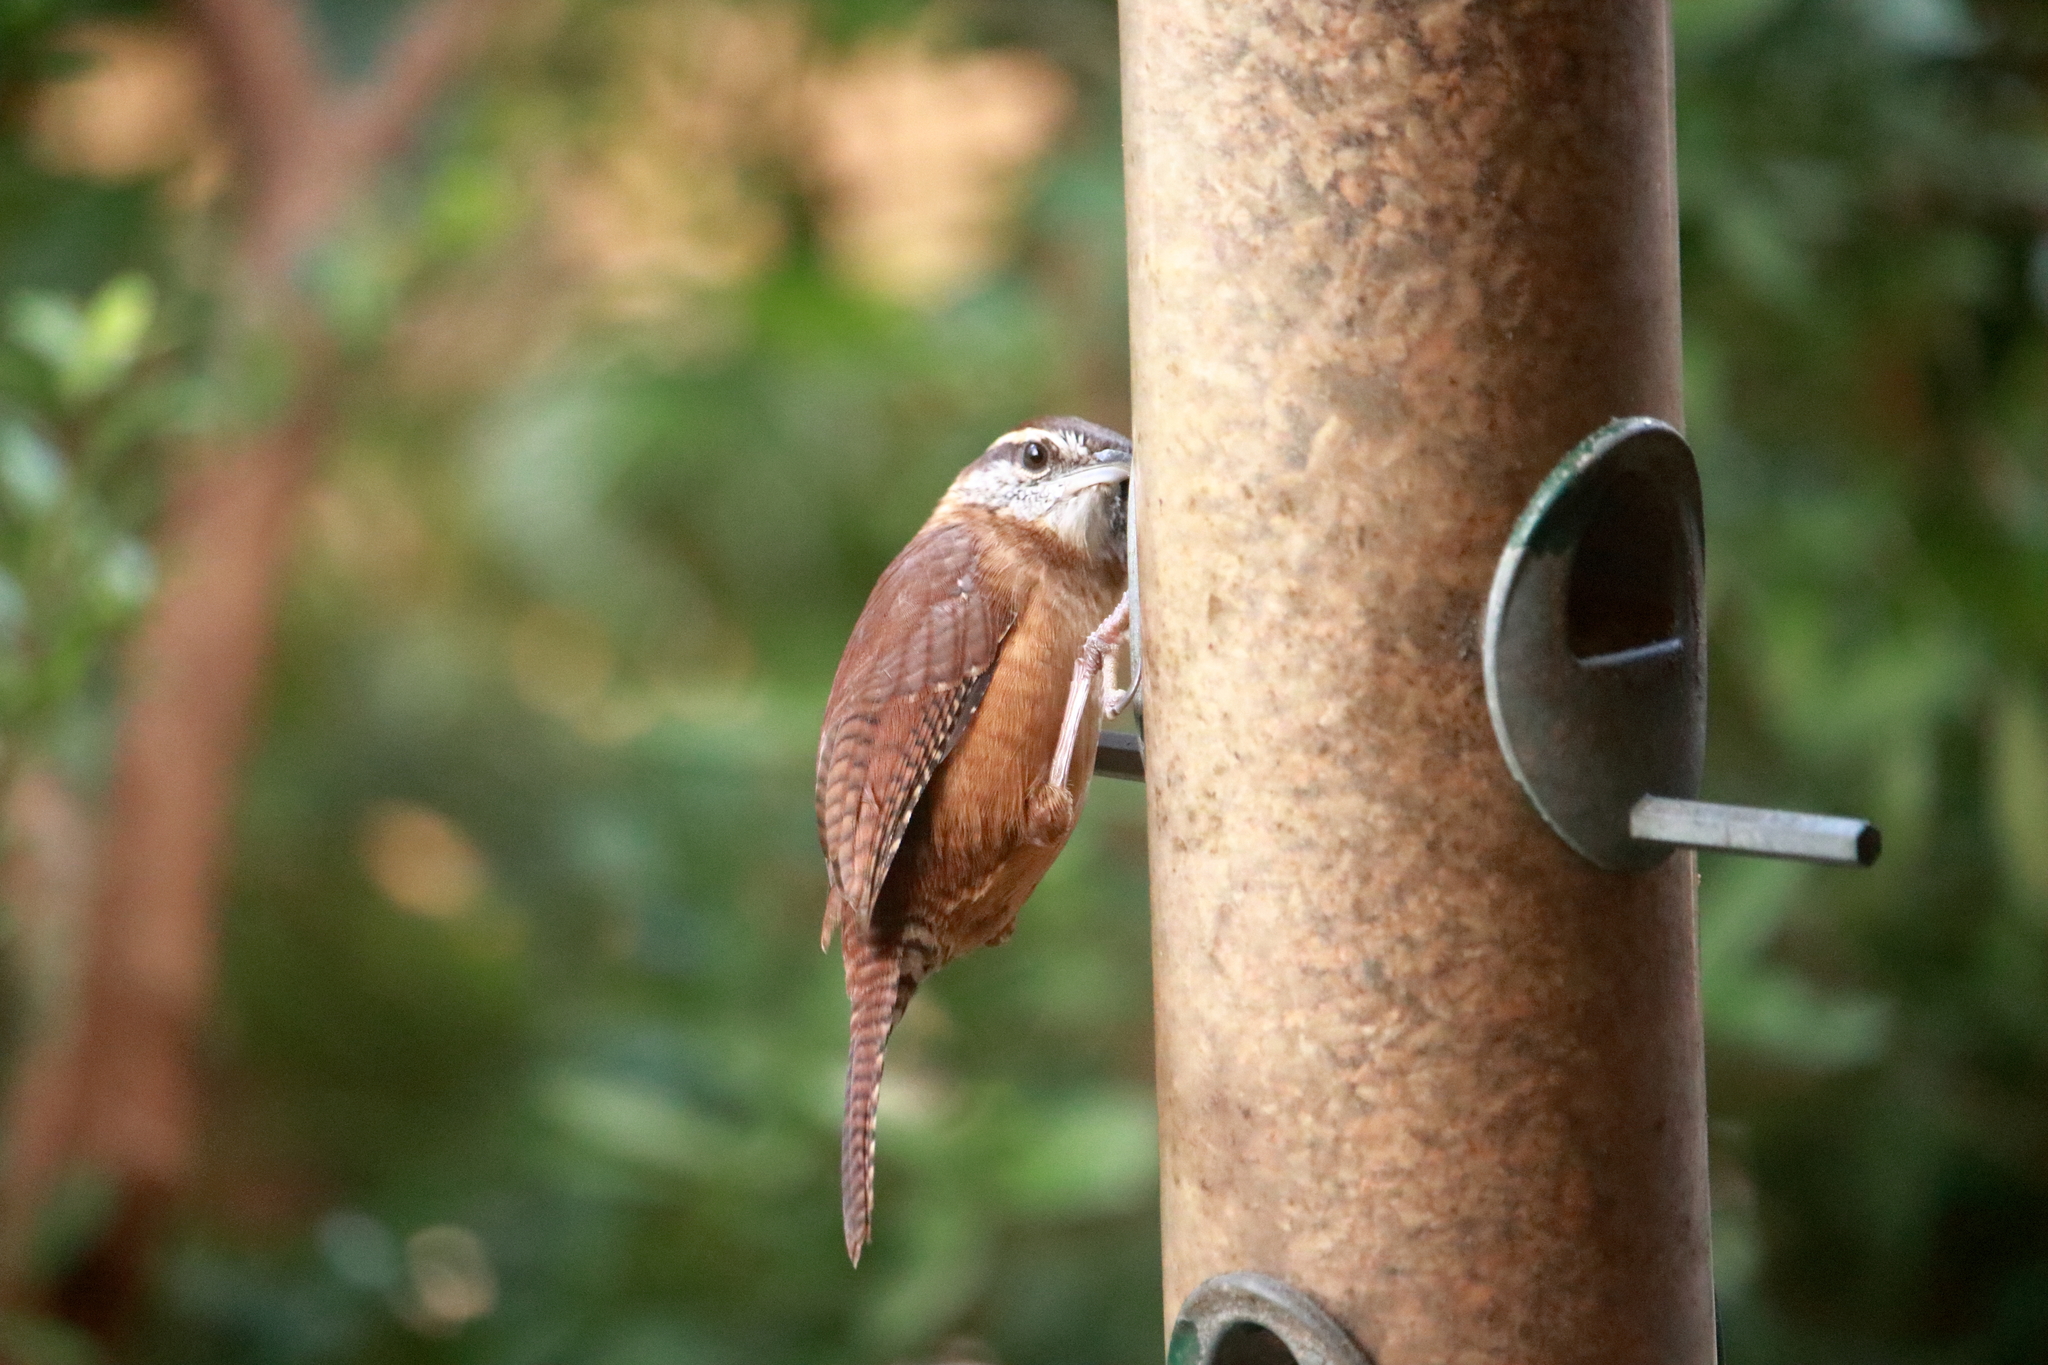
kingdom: Animalia
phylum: Chordata
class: Aves
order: Passeriformes
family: Troglodytidae
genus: Thryothorus
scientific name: Thryothorus ludovicianus
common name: Carolina wren
